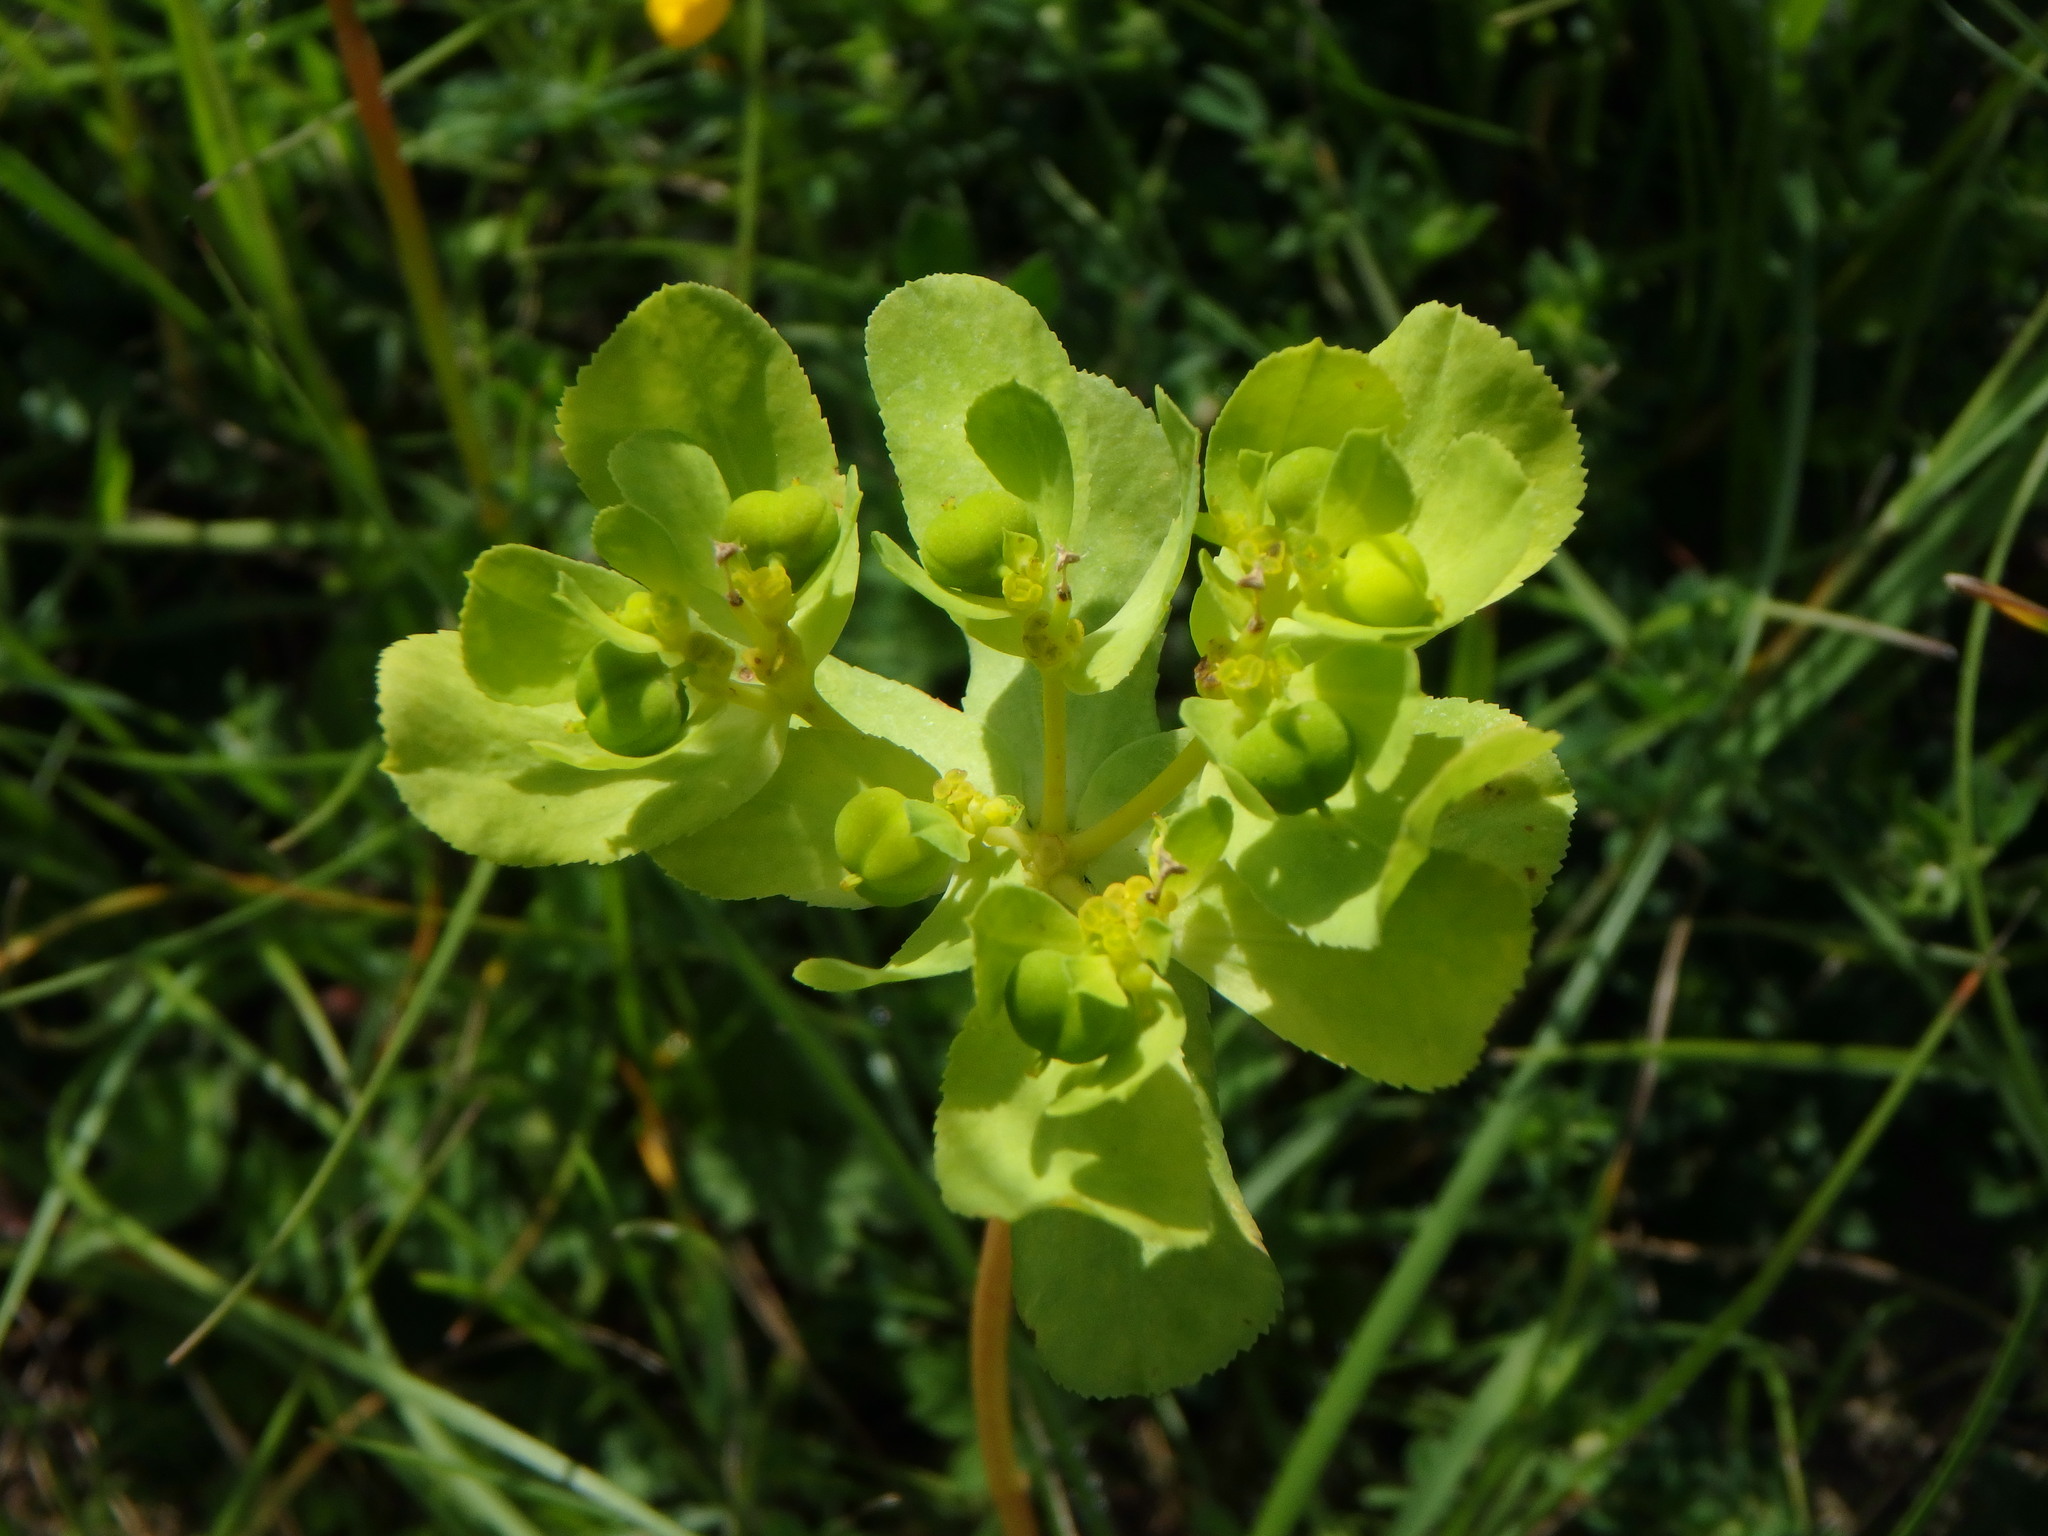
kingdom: Plantae
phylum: Tracheophyta
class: Magnoliopsida
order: Malpighiales
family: Euphorbiaceae
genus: Euphorbia
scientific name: Euphorbia helioscopia
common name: Sun spurge
